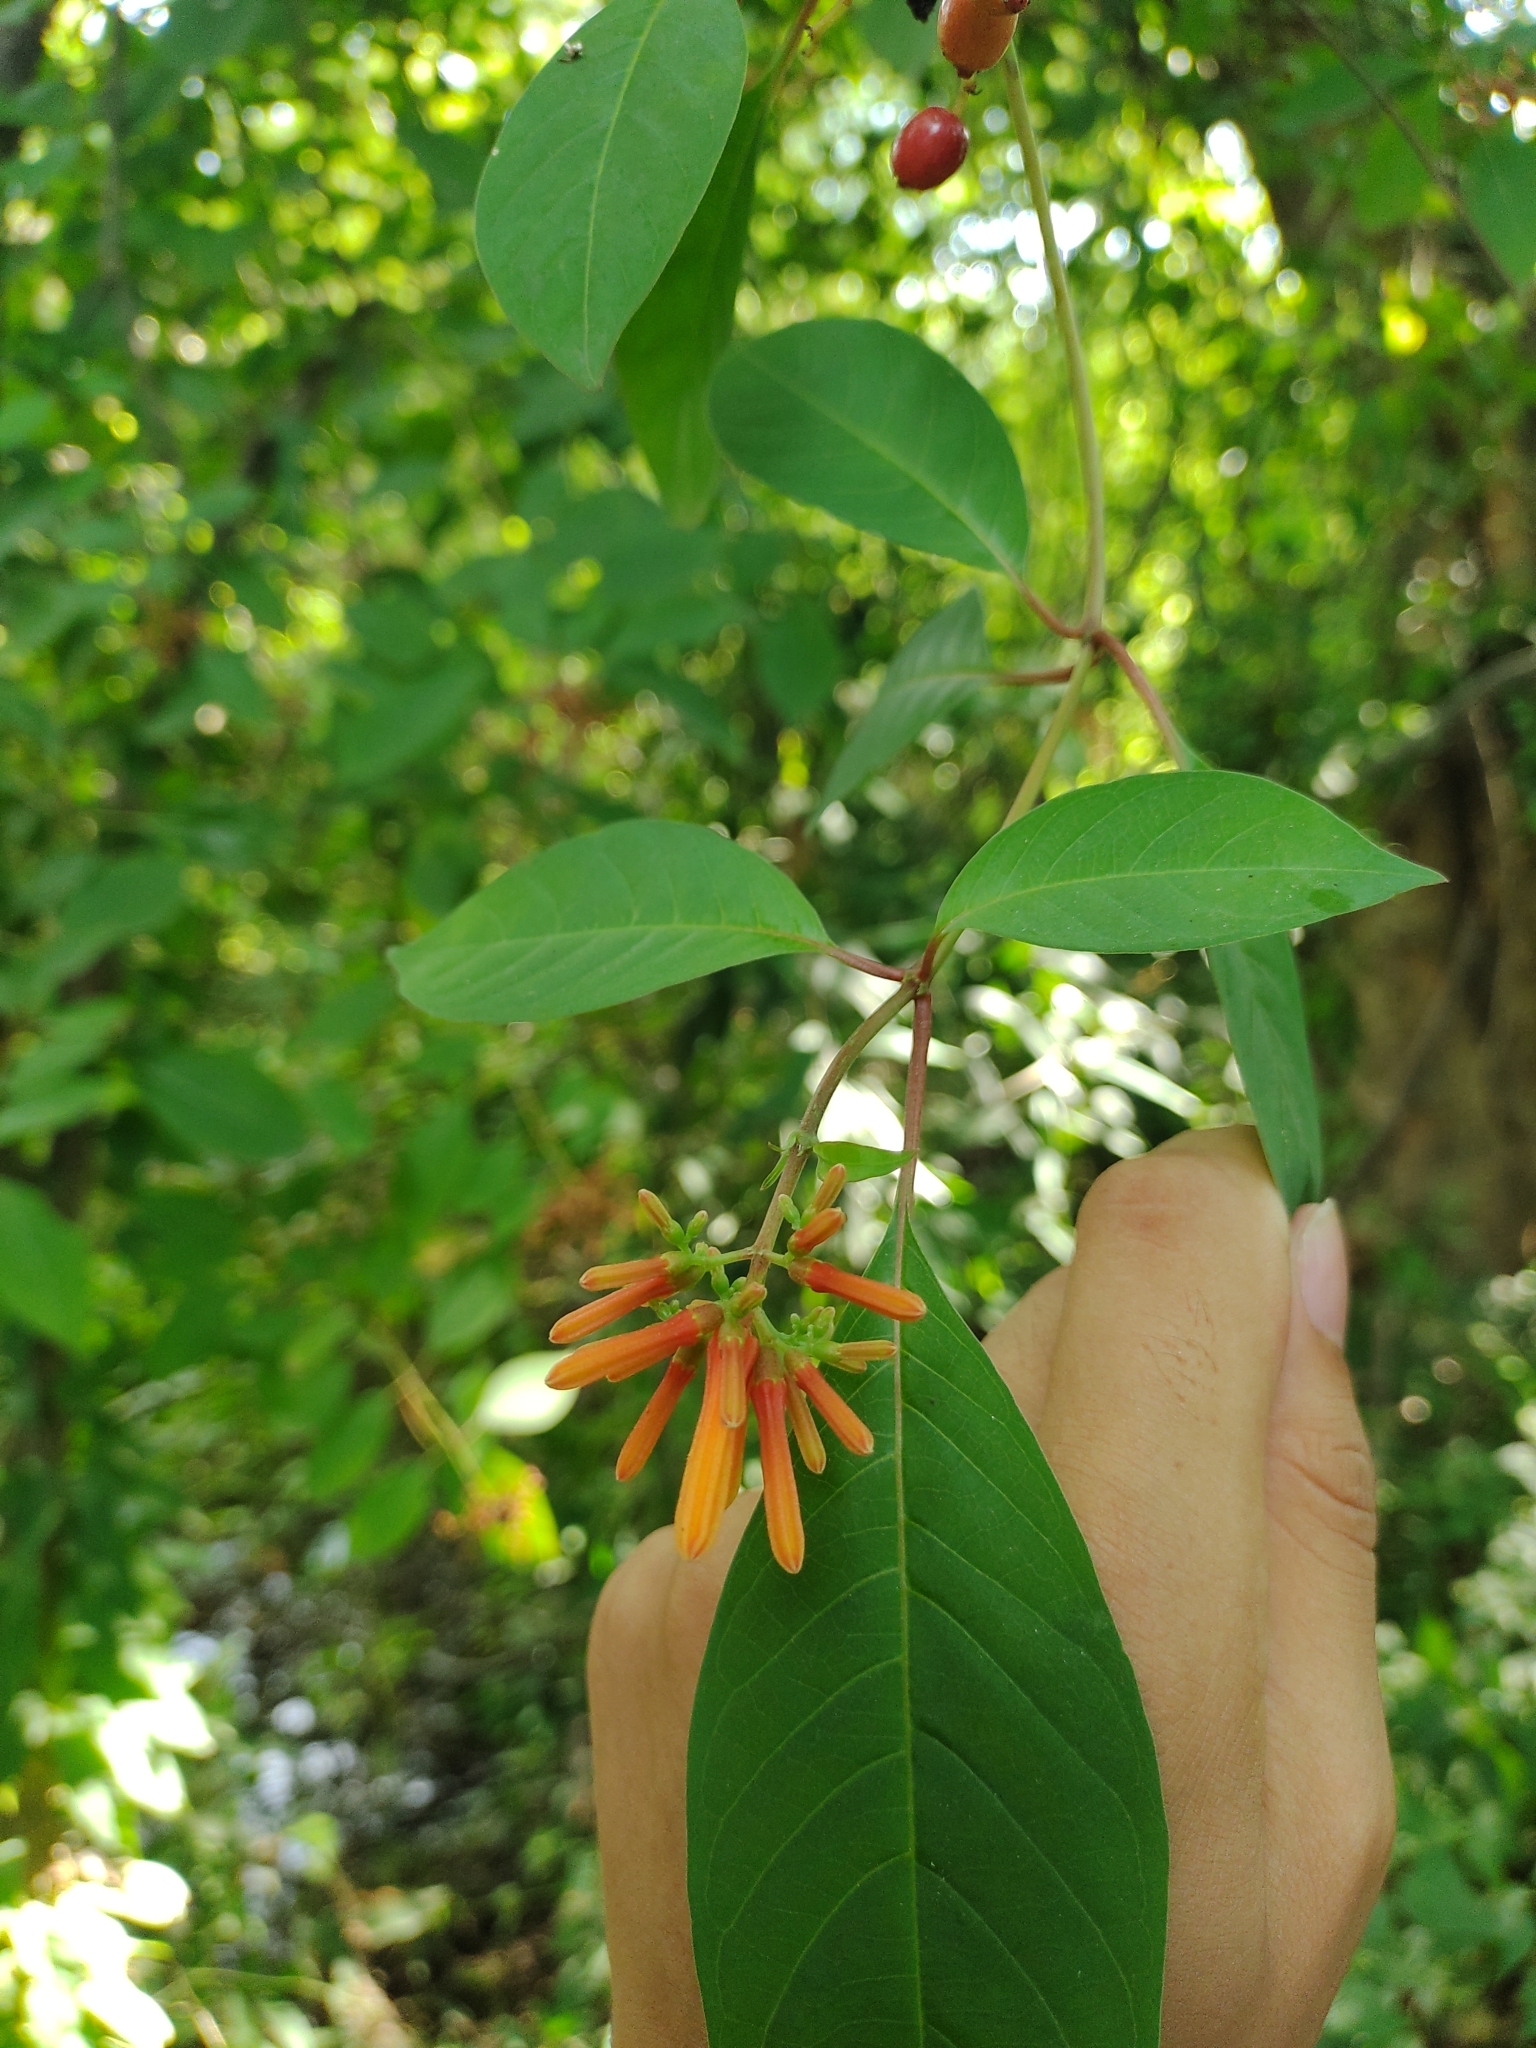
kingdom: Plantae
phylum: Tracheophyta
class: Magnoliopsida
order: Gentianales
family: Rubiaceae
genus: Hamelia
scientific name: Hamelia patens
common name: Redhead
